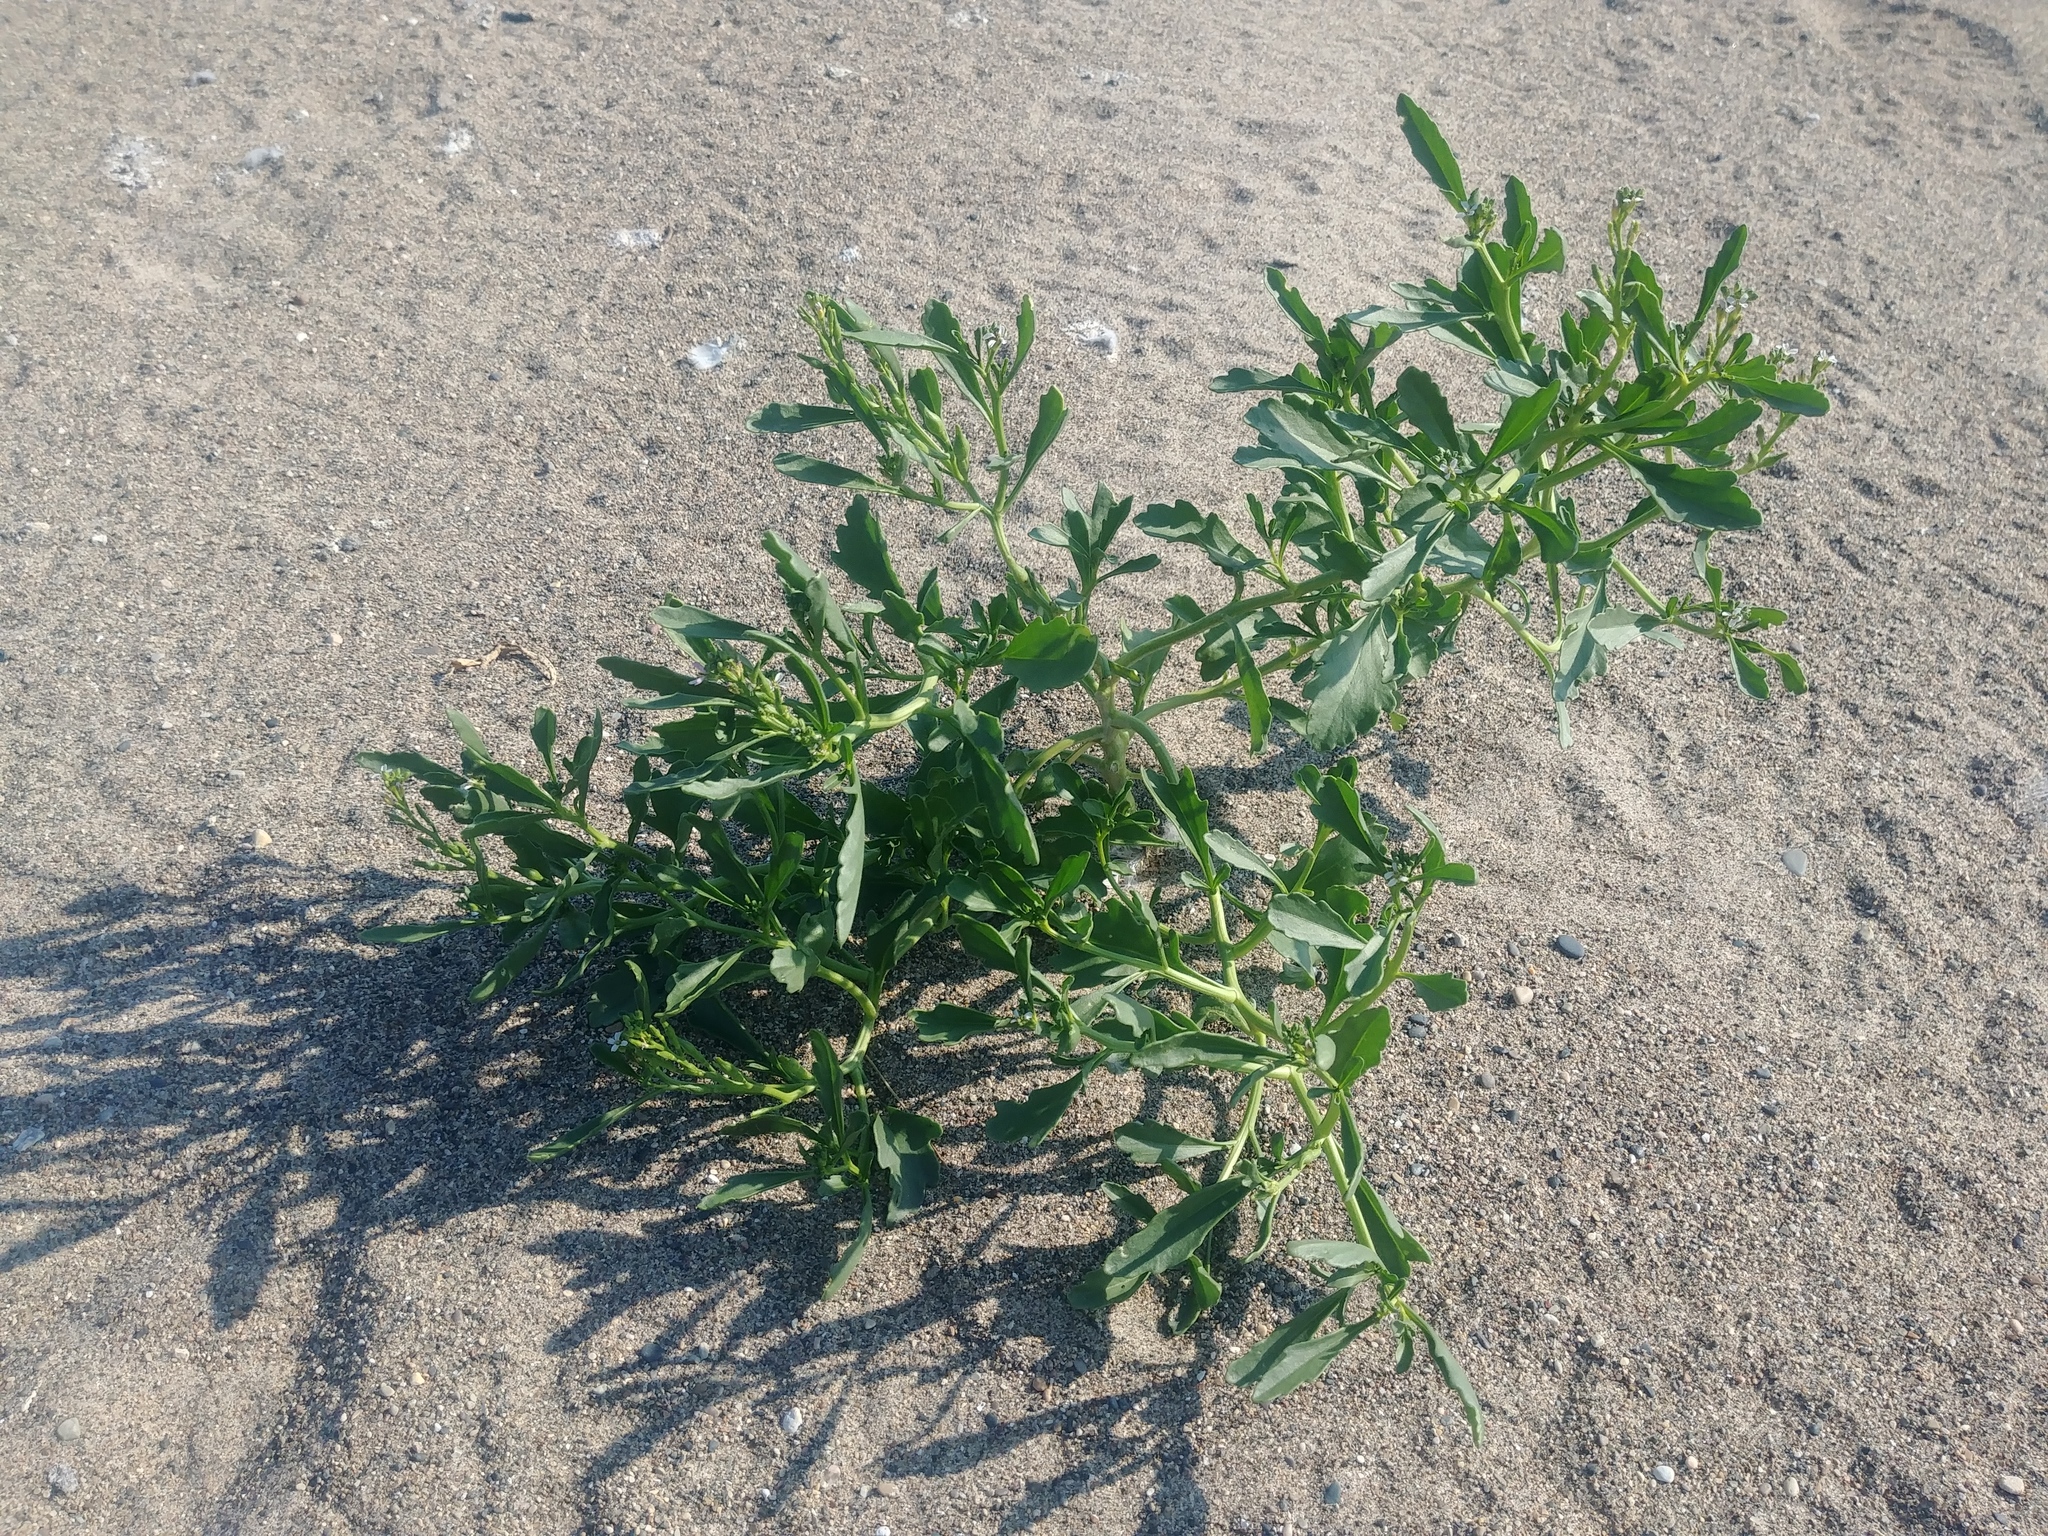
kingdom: Plantae
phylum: Tracheophyta
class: Magnoliopsida
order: Brassicales
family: Brassicaceae
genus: Cakile
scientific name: Cakile edentula
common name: American sea rocket
